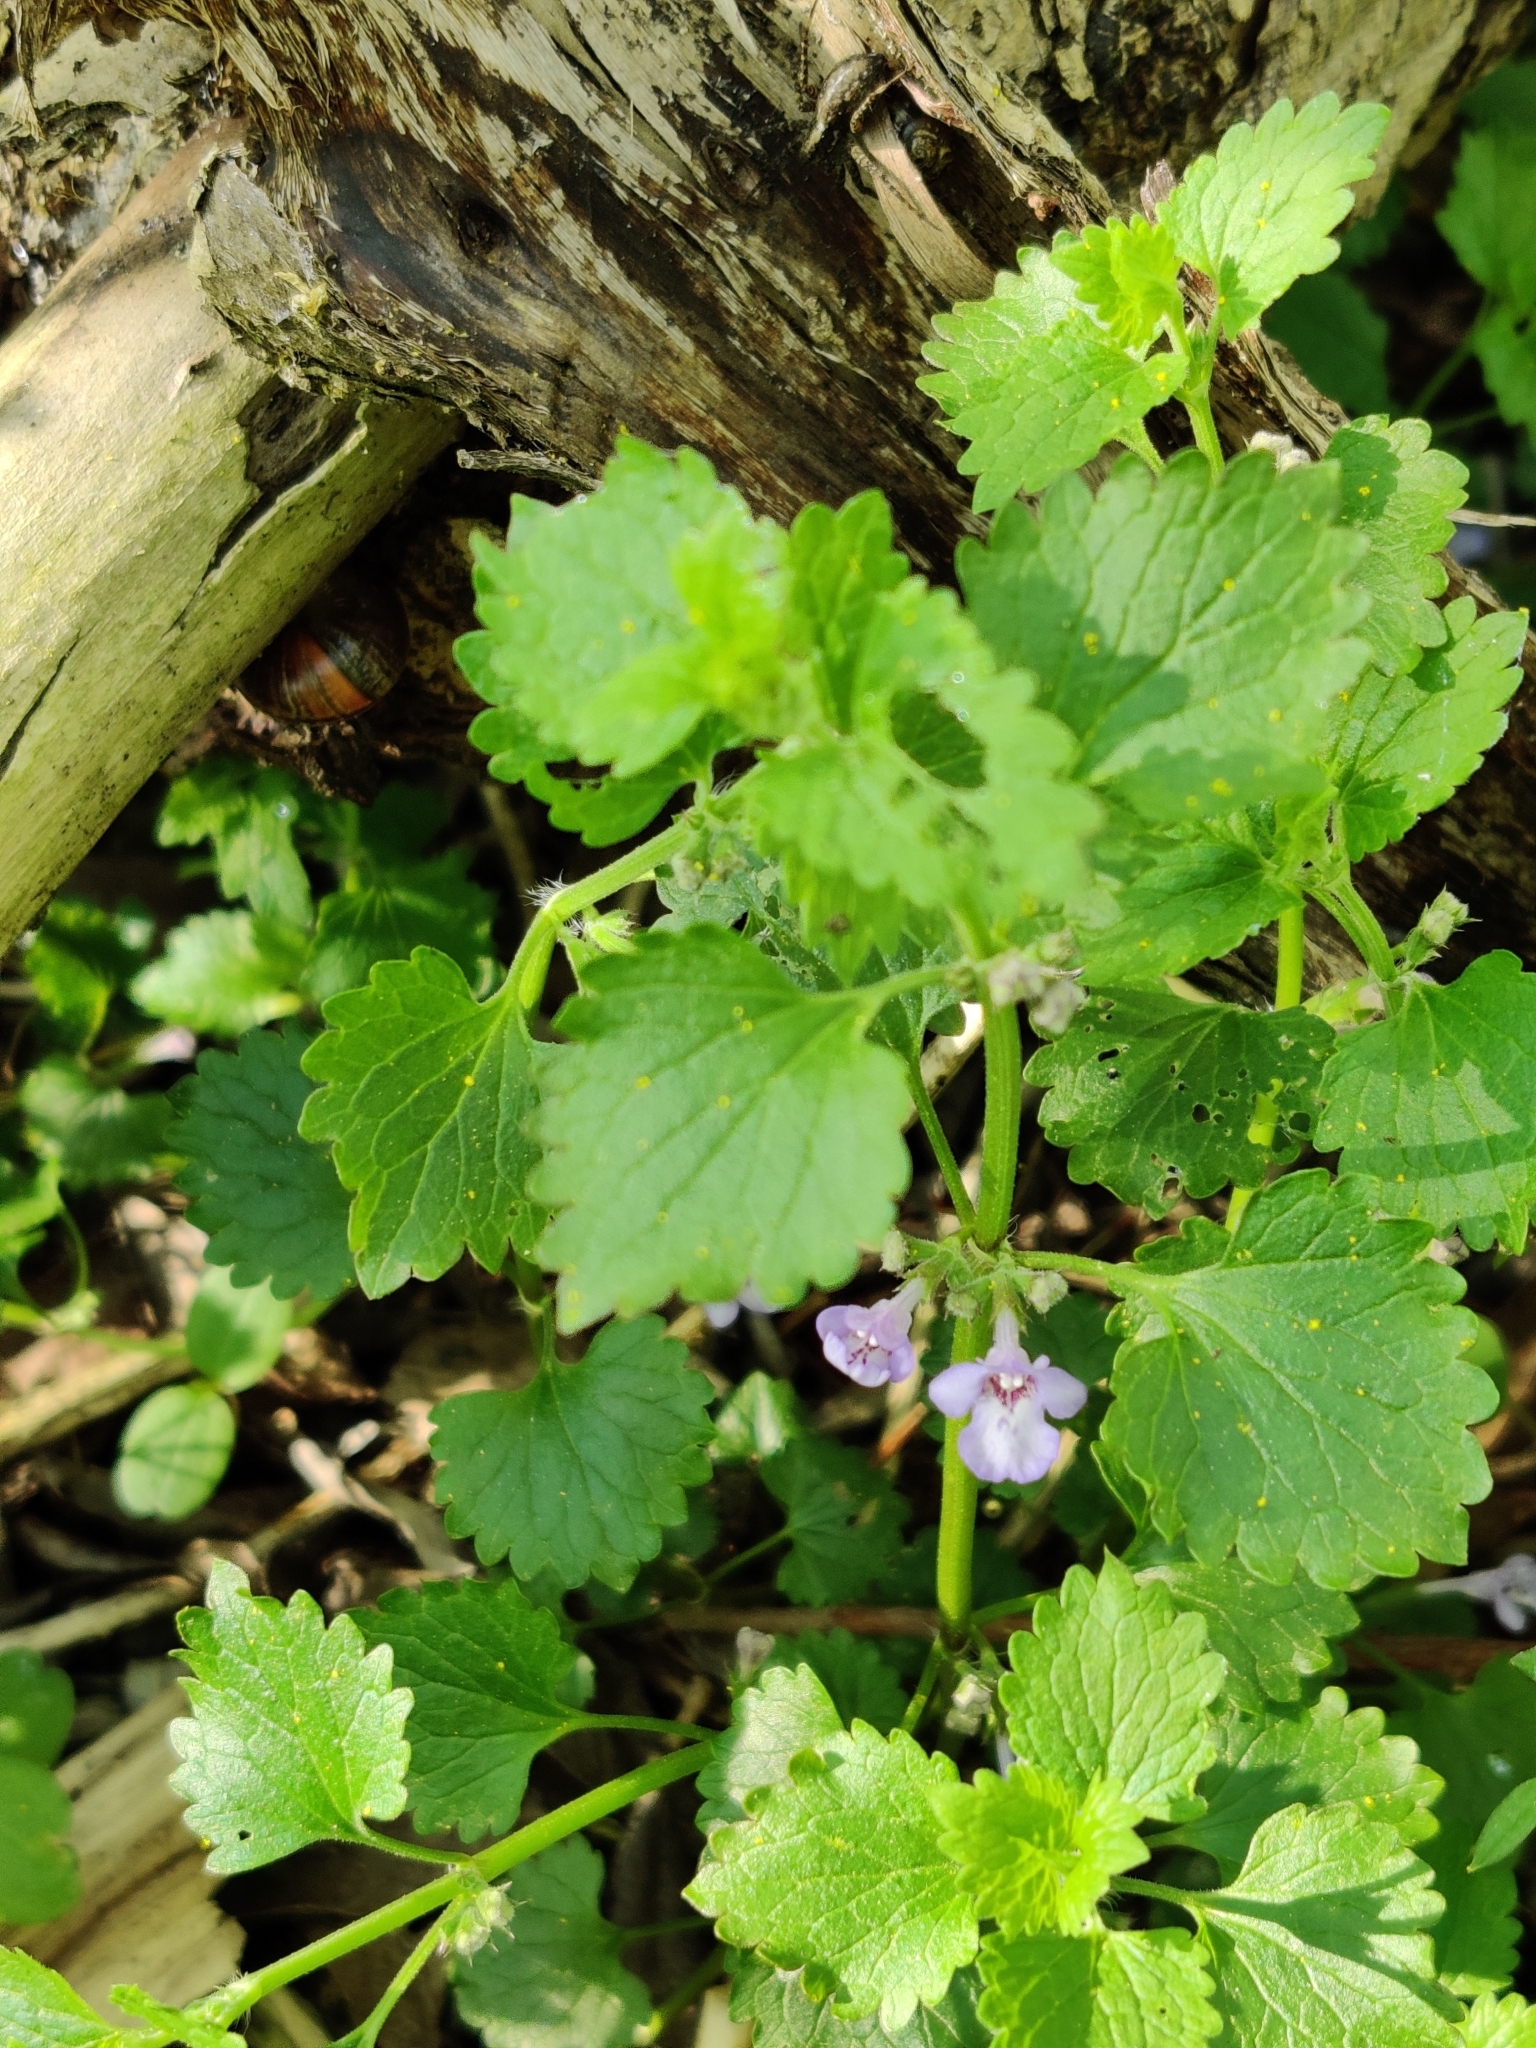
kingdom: Plantae
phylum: Tracheophyta
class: Magnoliopsida
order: Lamiales
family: Lamiaceae
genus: Glechoma
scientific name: Glechoma hederacea
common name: Ground ivy
